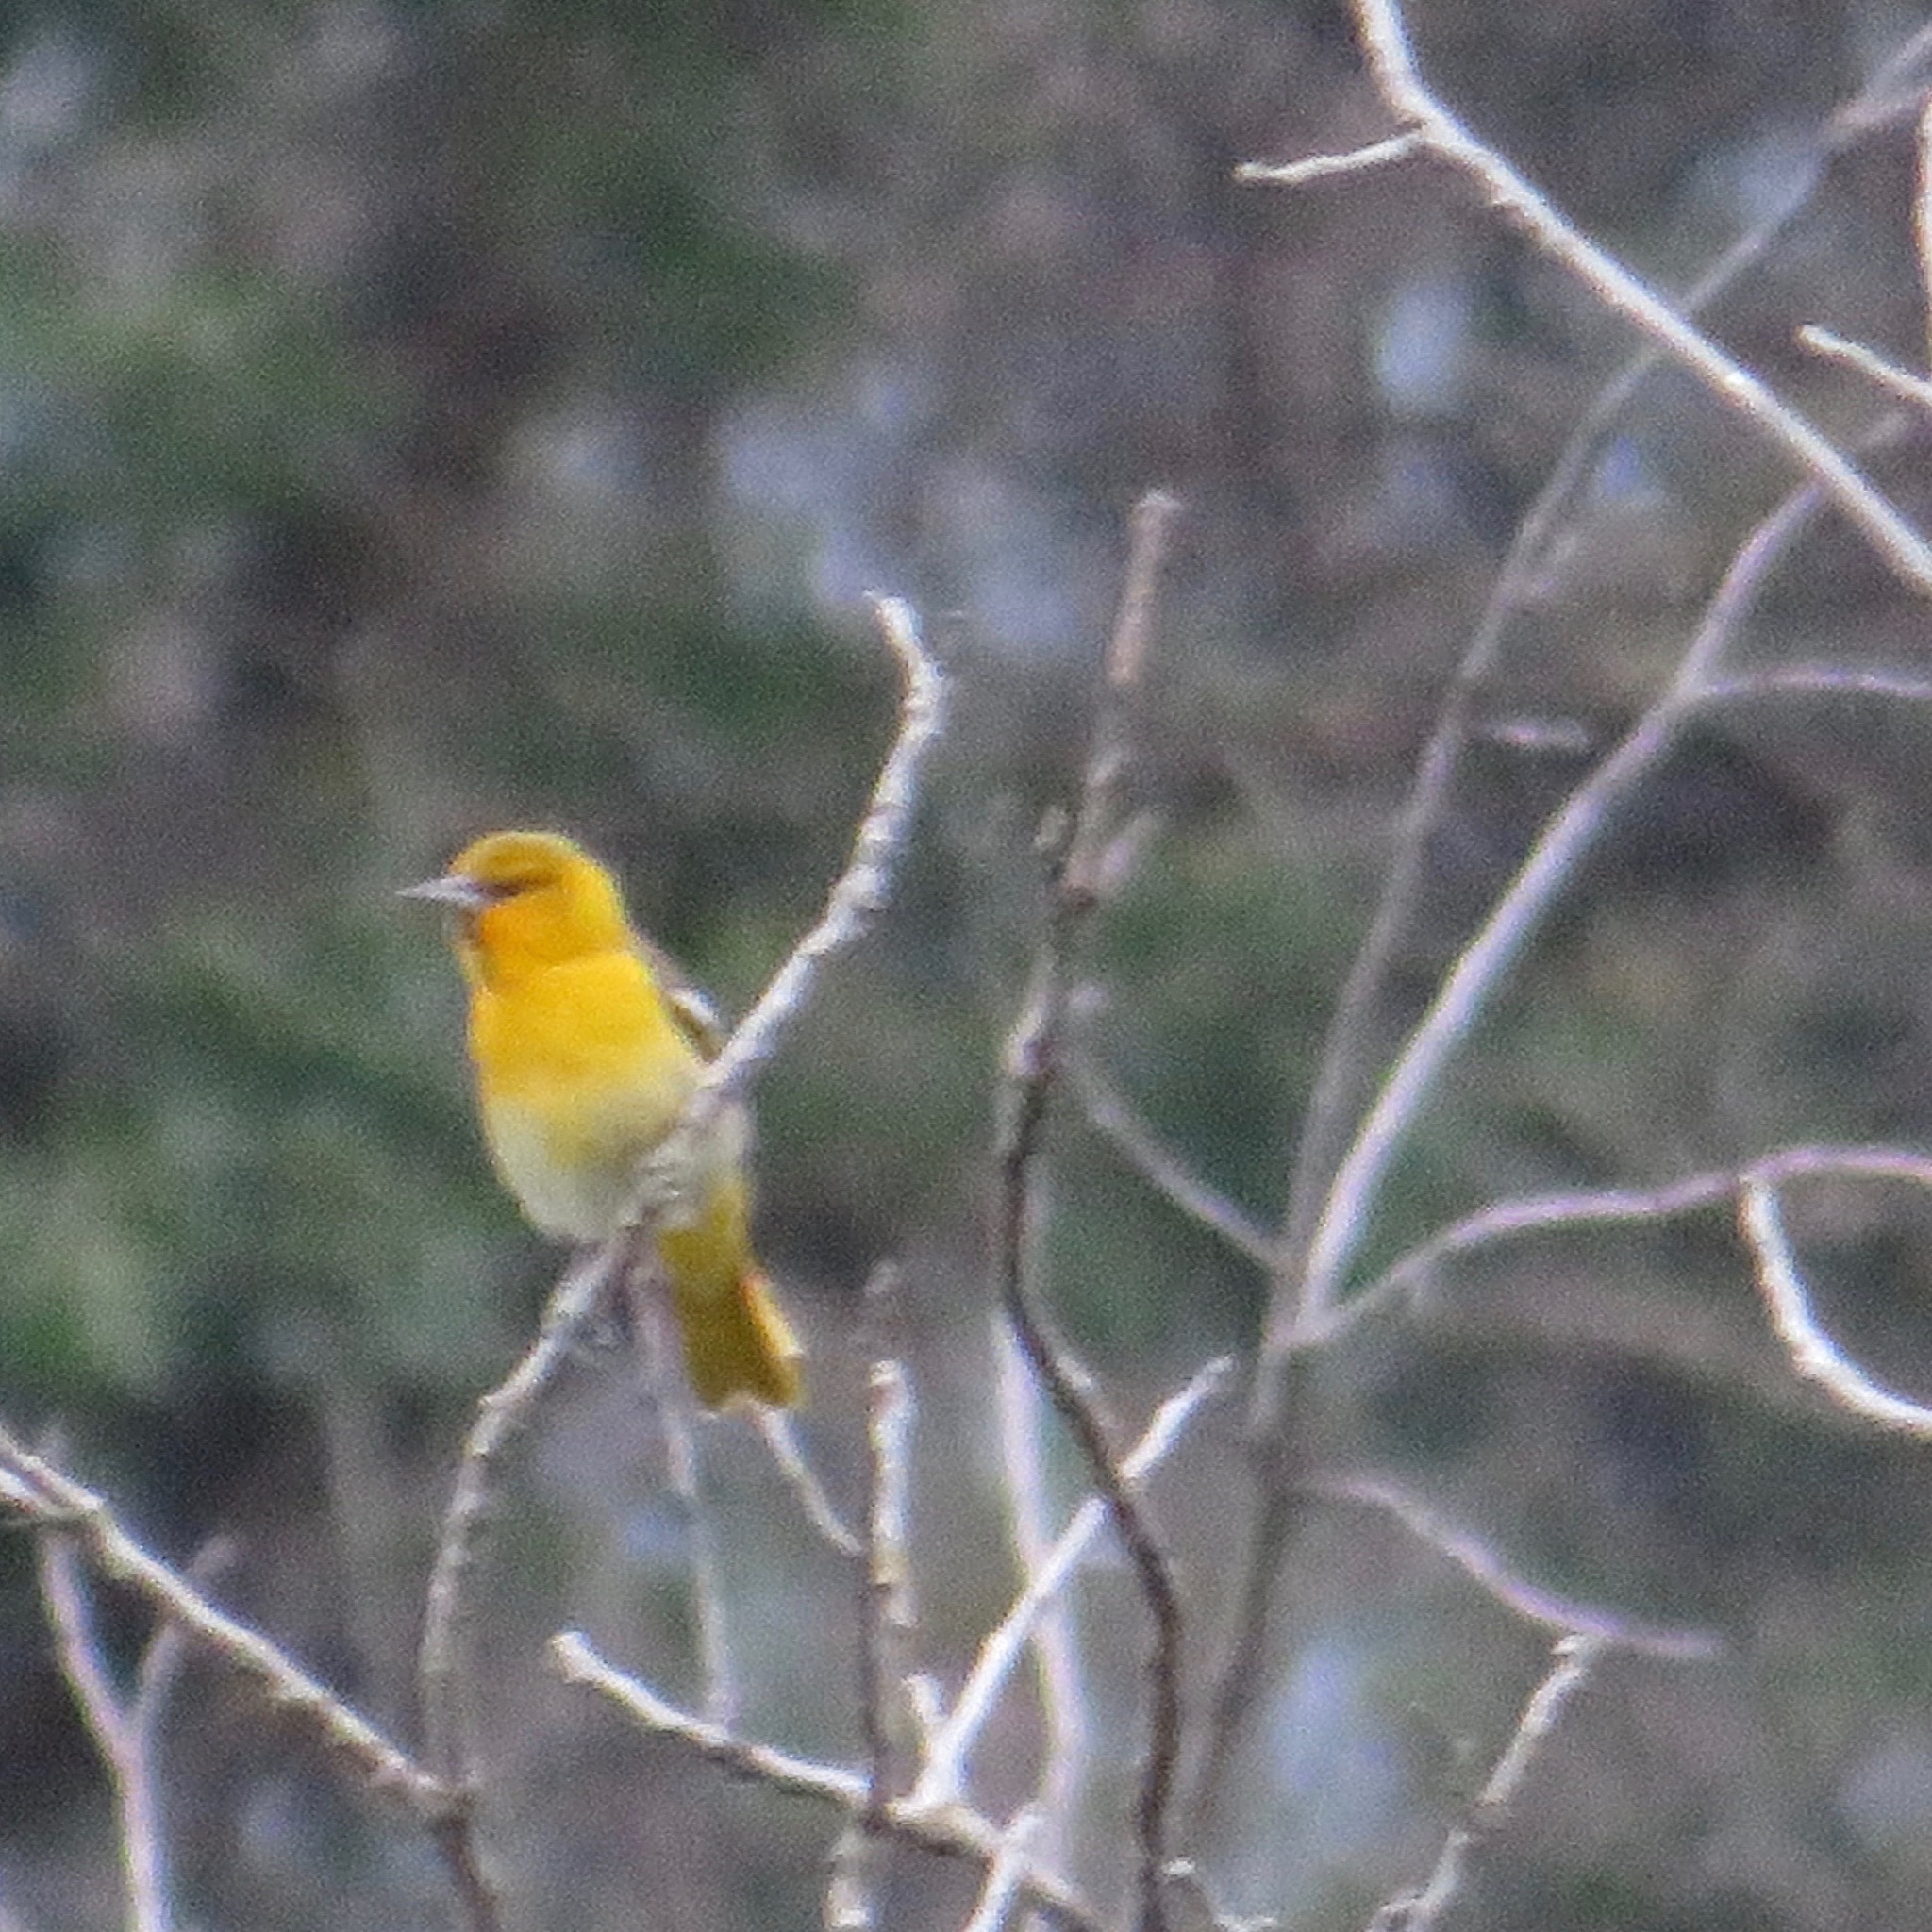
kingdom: Animalia
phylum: Chordata
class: Aves
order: Passeriformes
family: Icteridae
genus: Icterus
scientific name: Icterus bullockii
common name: Bullock's oriole
